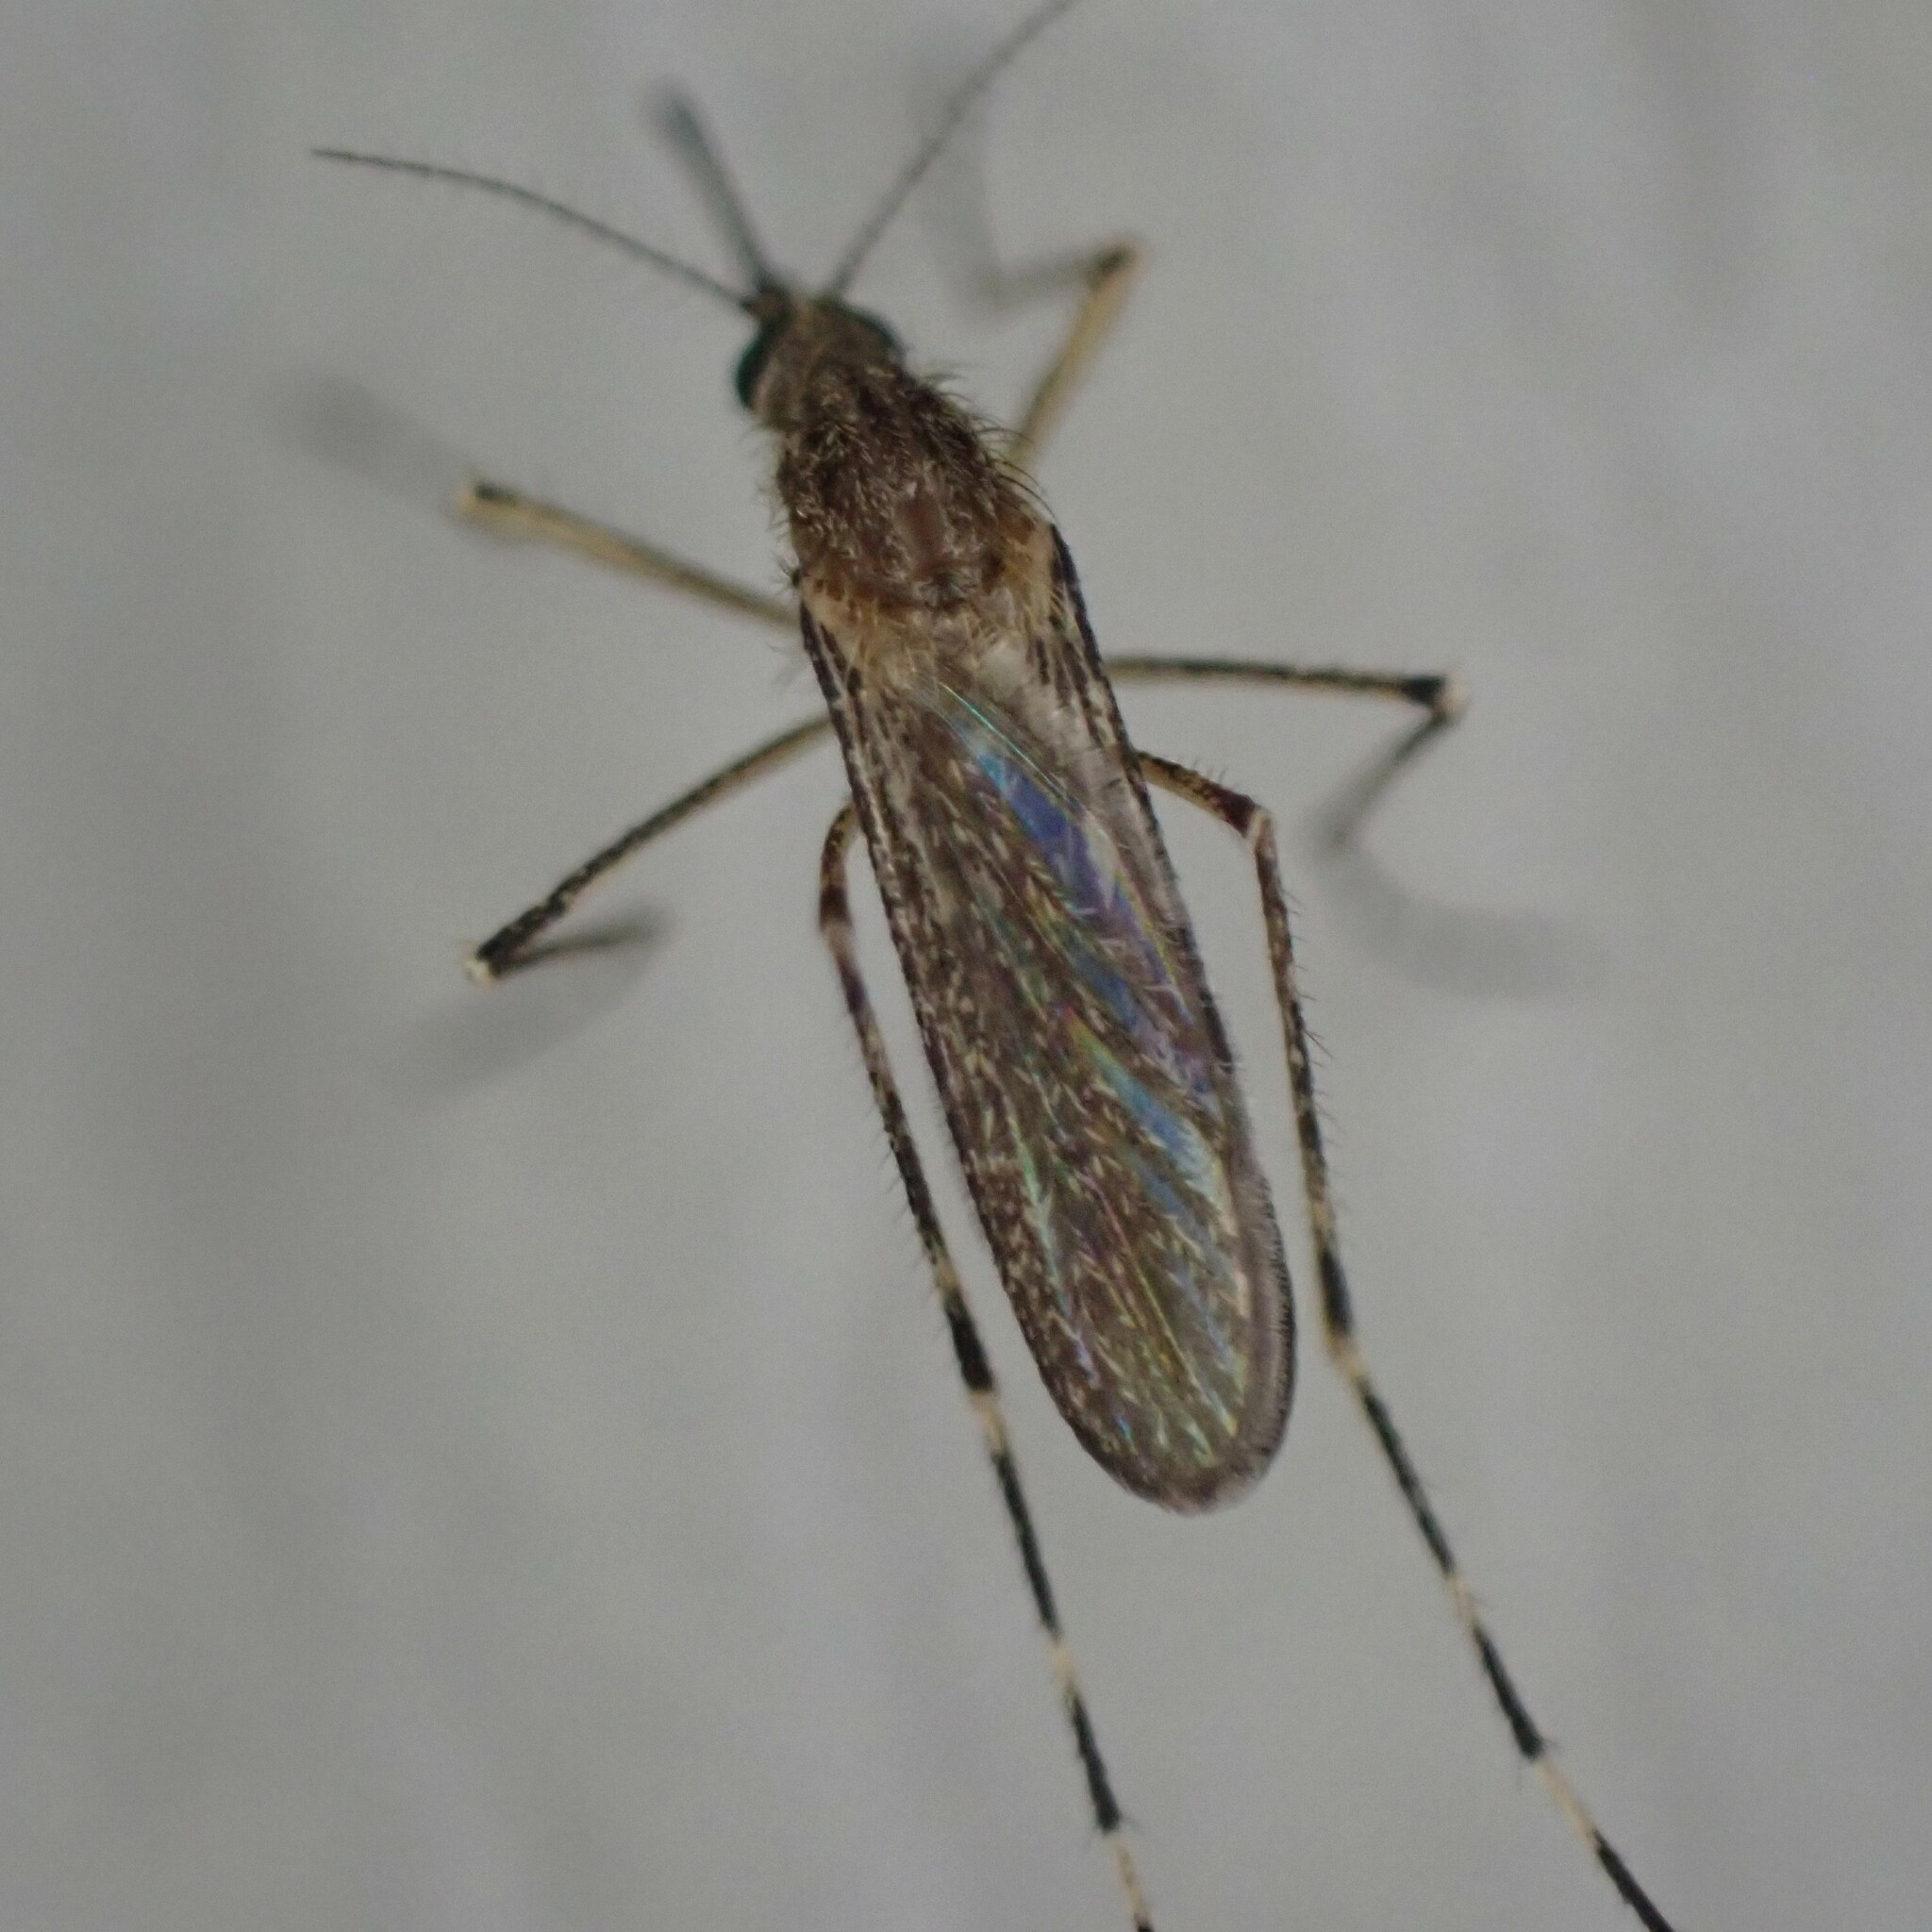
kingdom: Animalia
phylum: Arthropoda
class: Insecta
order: Diptera
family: Culicidae
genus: Coquillettidia
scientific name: Coquillettidia perturbans
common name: Cattail mosquito
